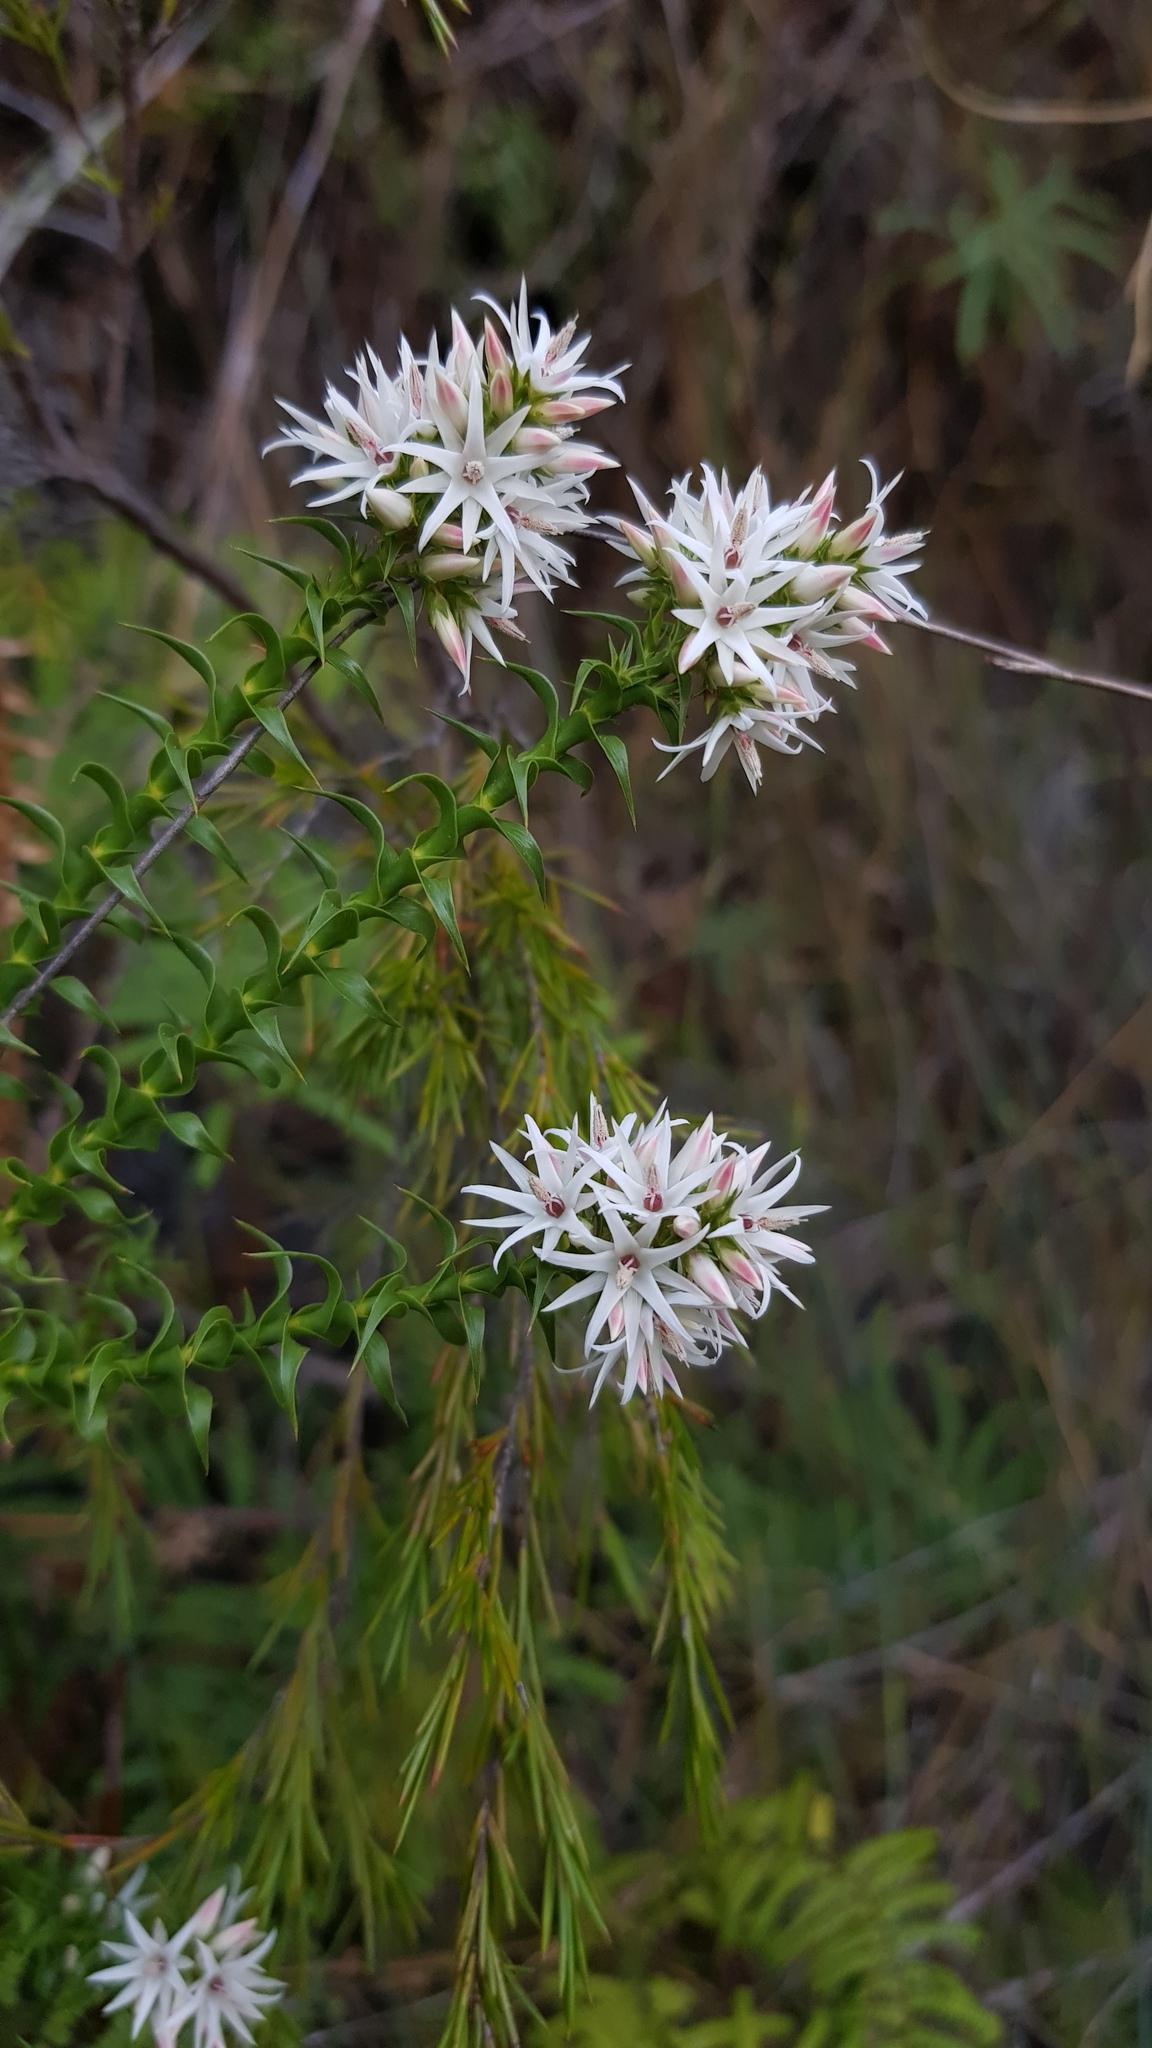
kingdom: Plantae
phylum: Tracheophyta
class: Magnoliopsida
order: Ericales
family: Ericaceae
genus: Sprengelia
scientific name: Sprengelia incarnata
